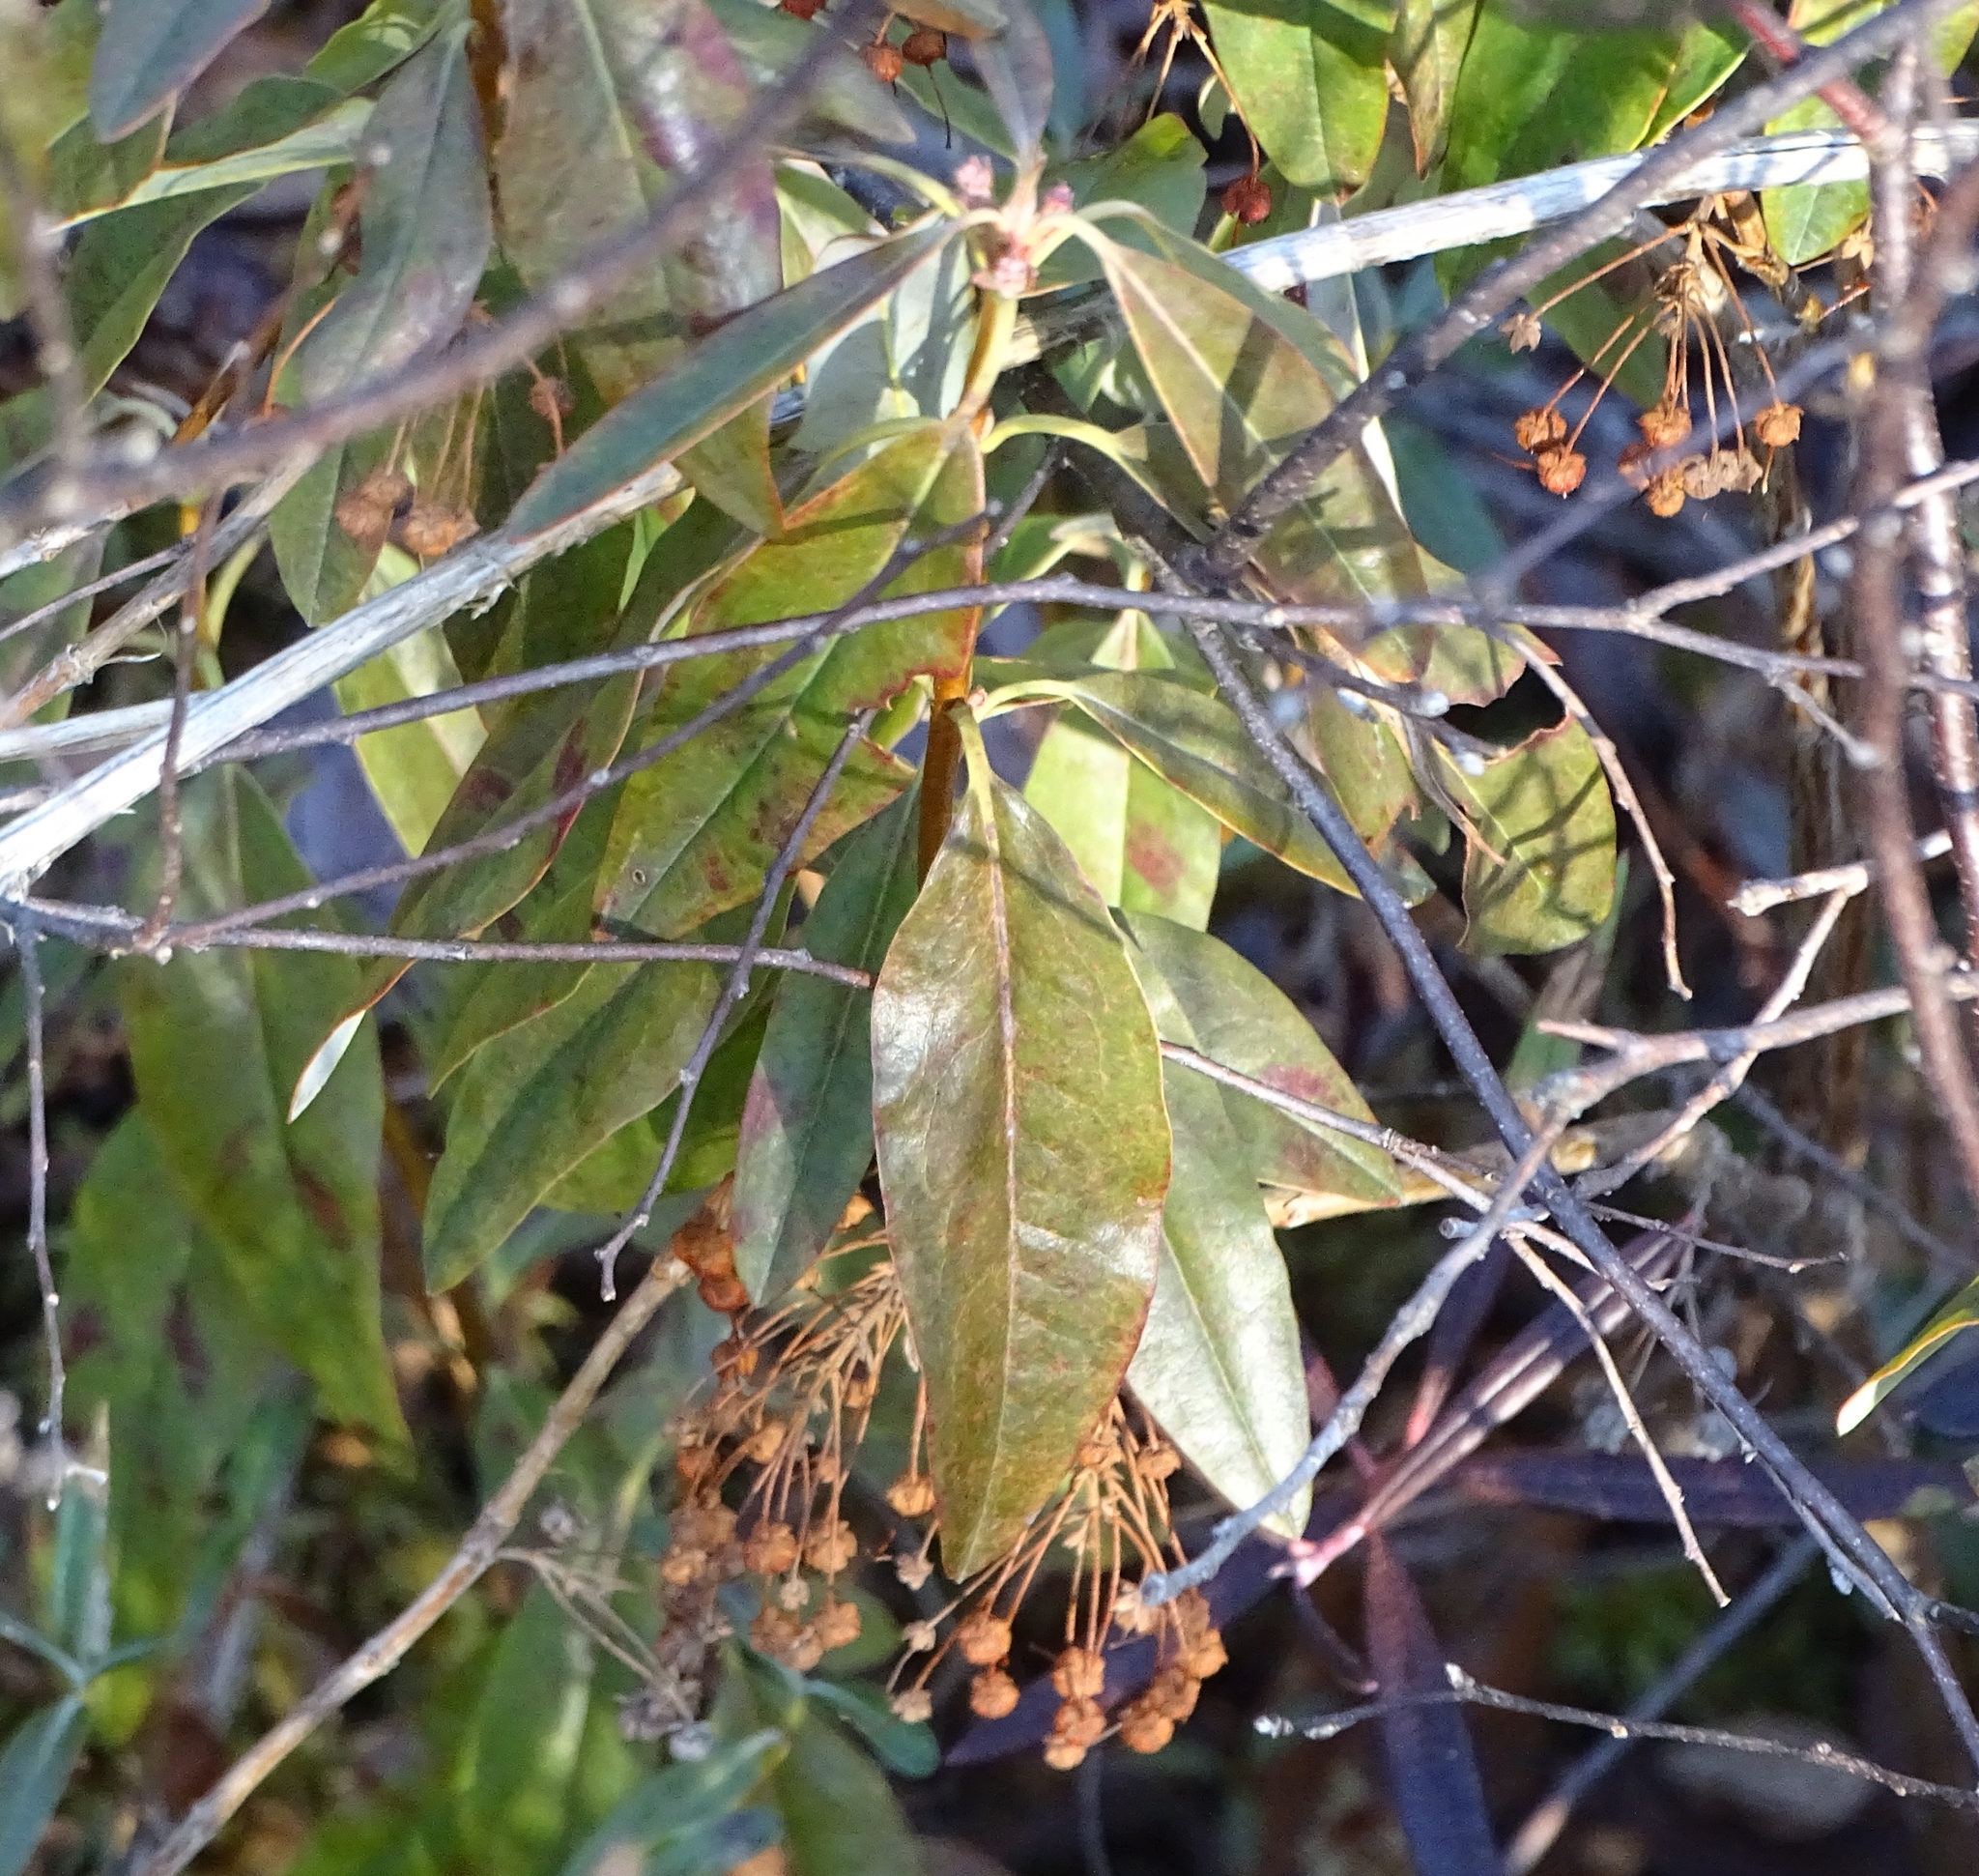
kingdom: Plantae
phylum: Tracheophyta
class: Magnoliopsida
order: Ericales
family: Ericaceae
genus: Kalmia
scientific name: Kalmia angustifolia
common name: Sheep-laurel
